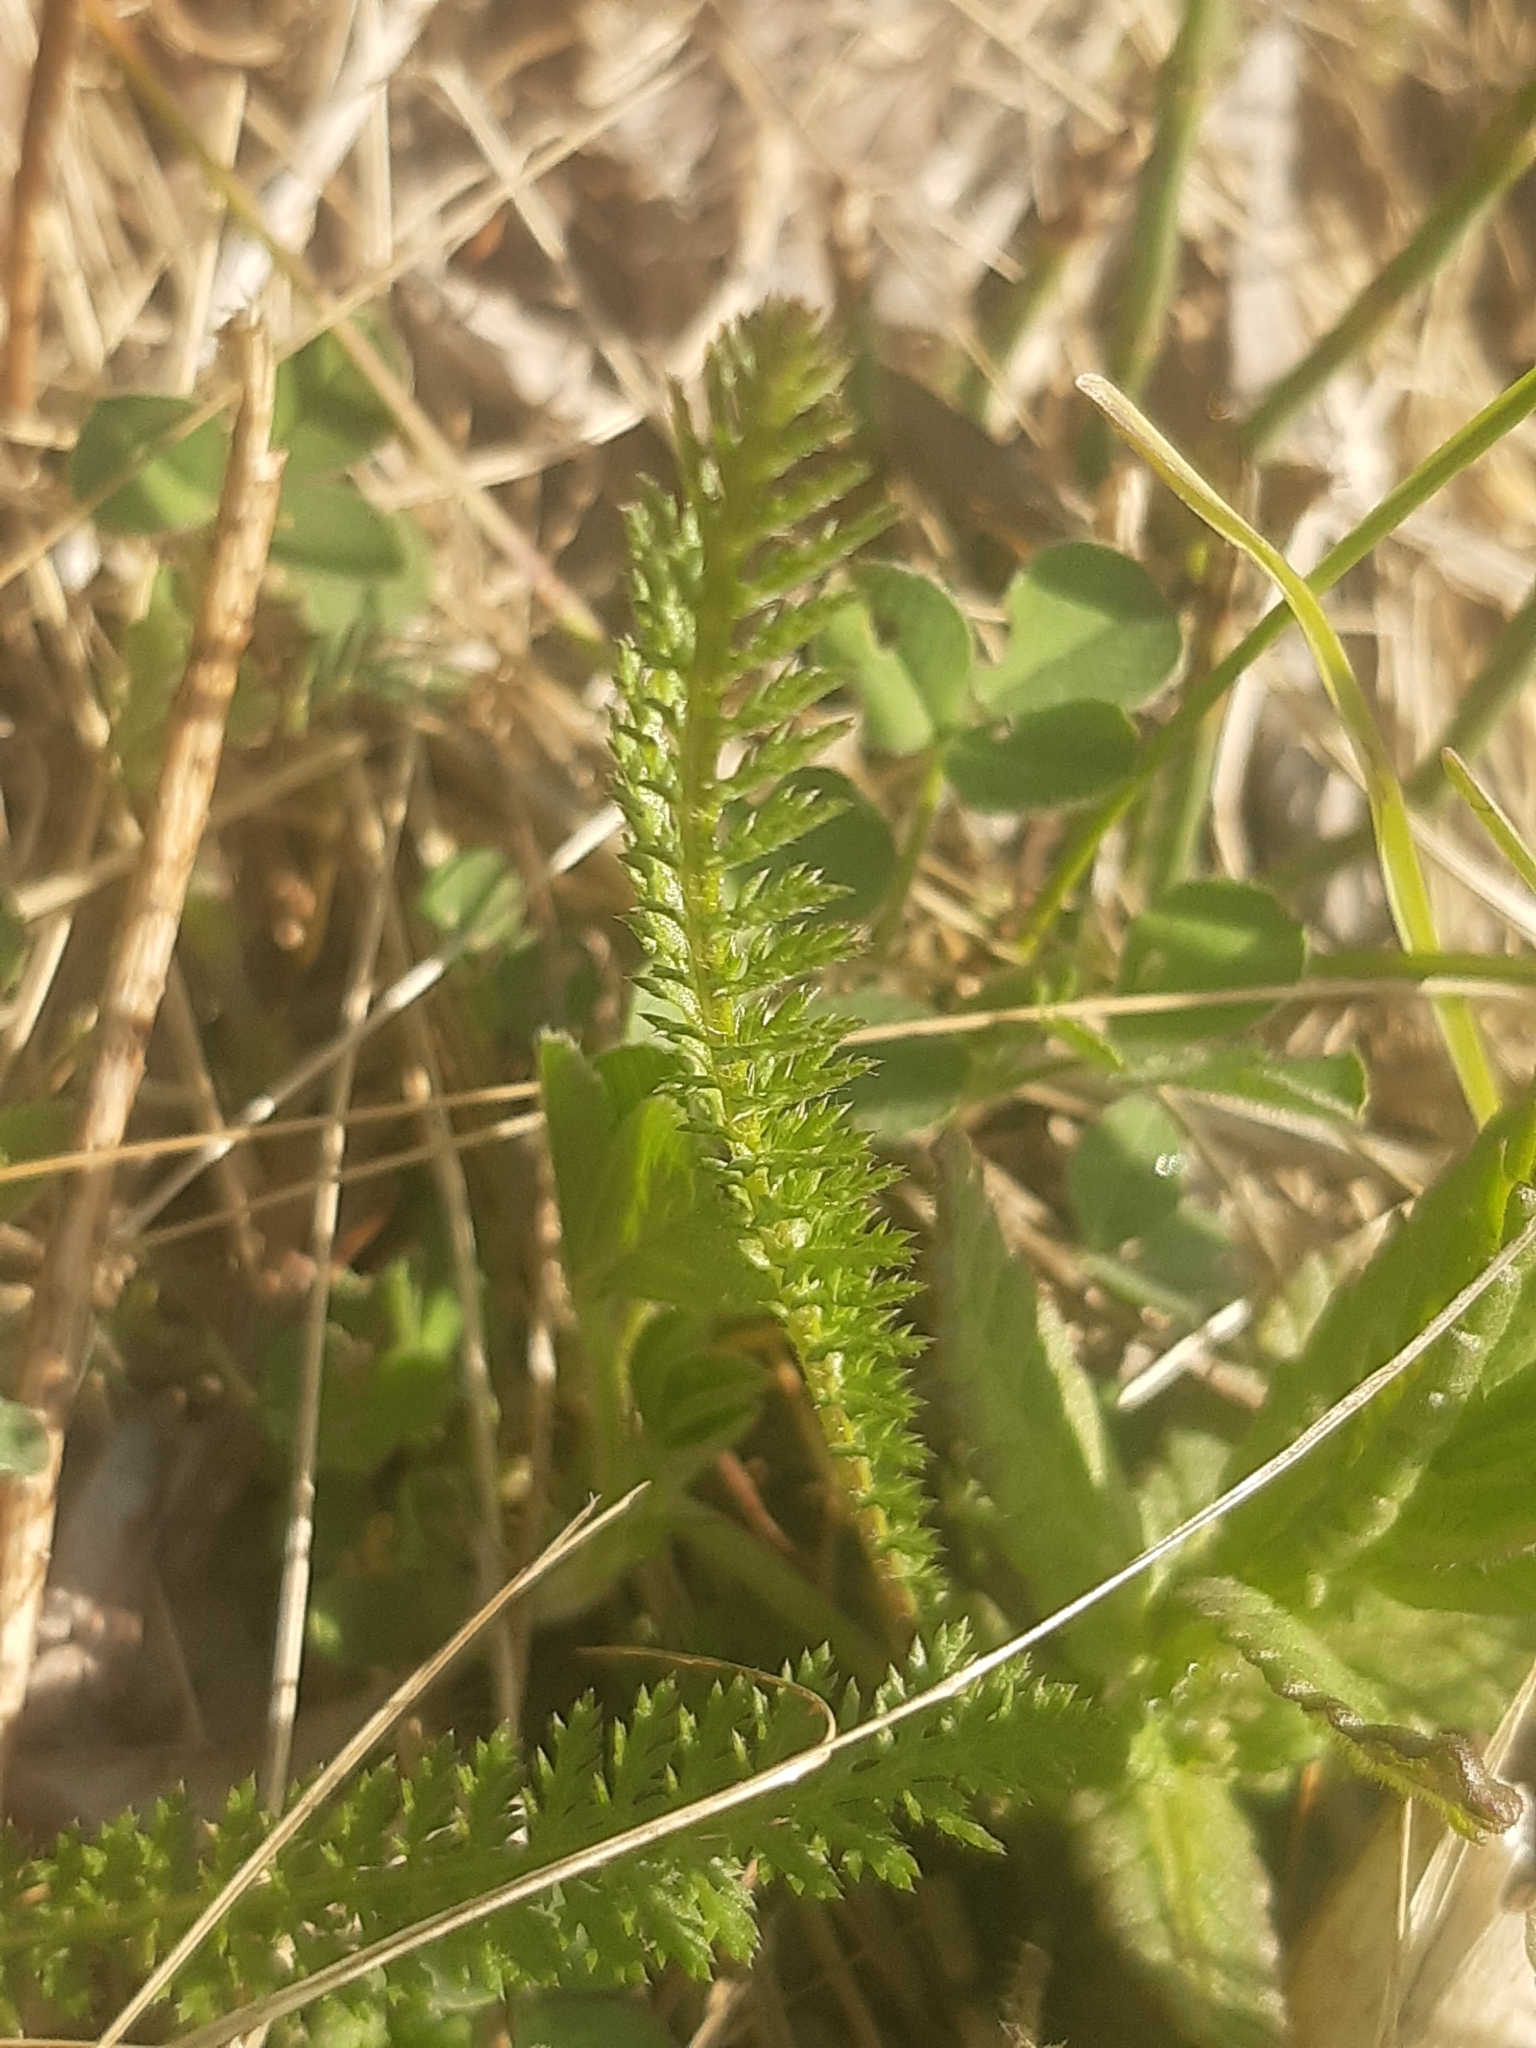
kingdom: Plantae
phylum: Tracheophyta
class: Magnoliopsida
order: Asterales
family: Asteraceae
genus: Achillea
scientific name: Achillea
